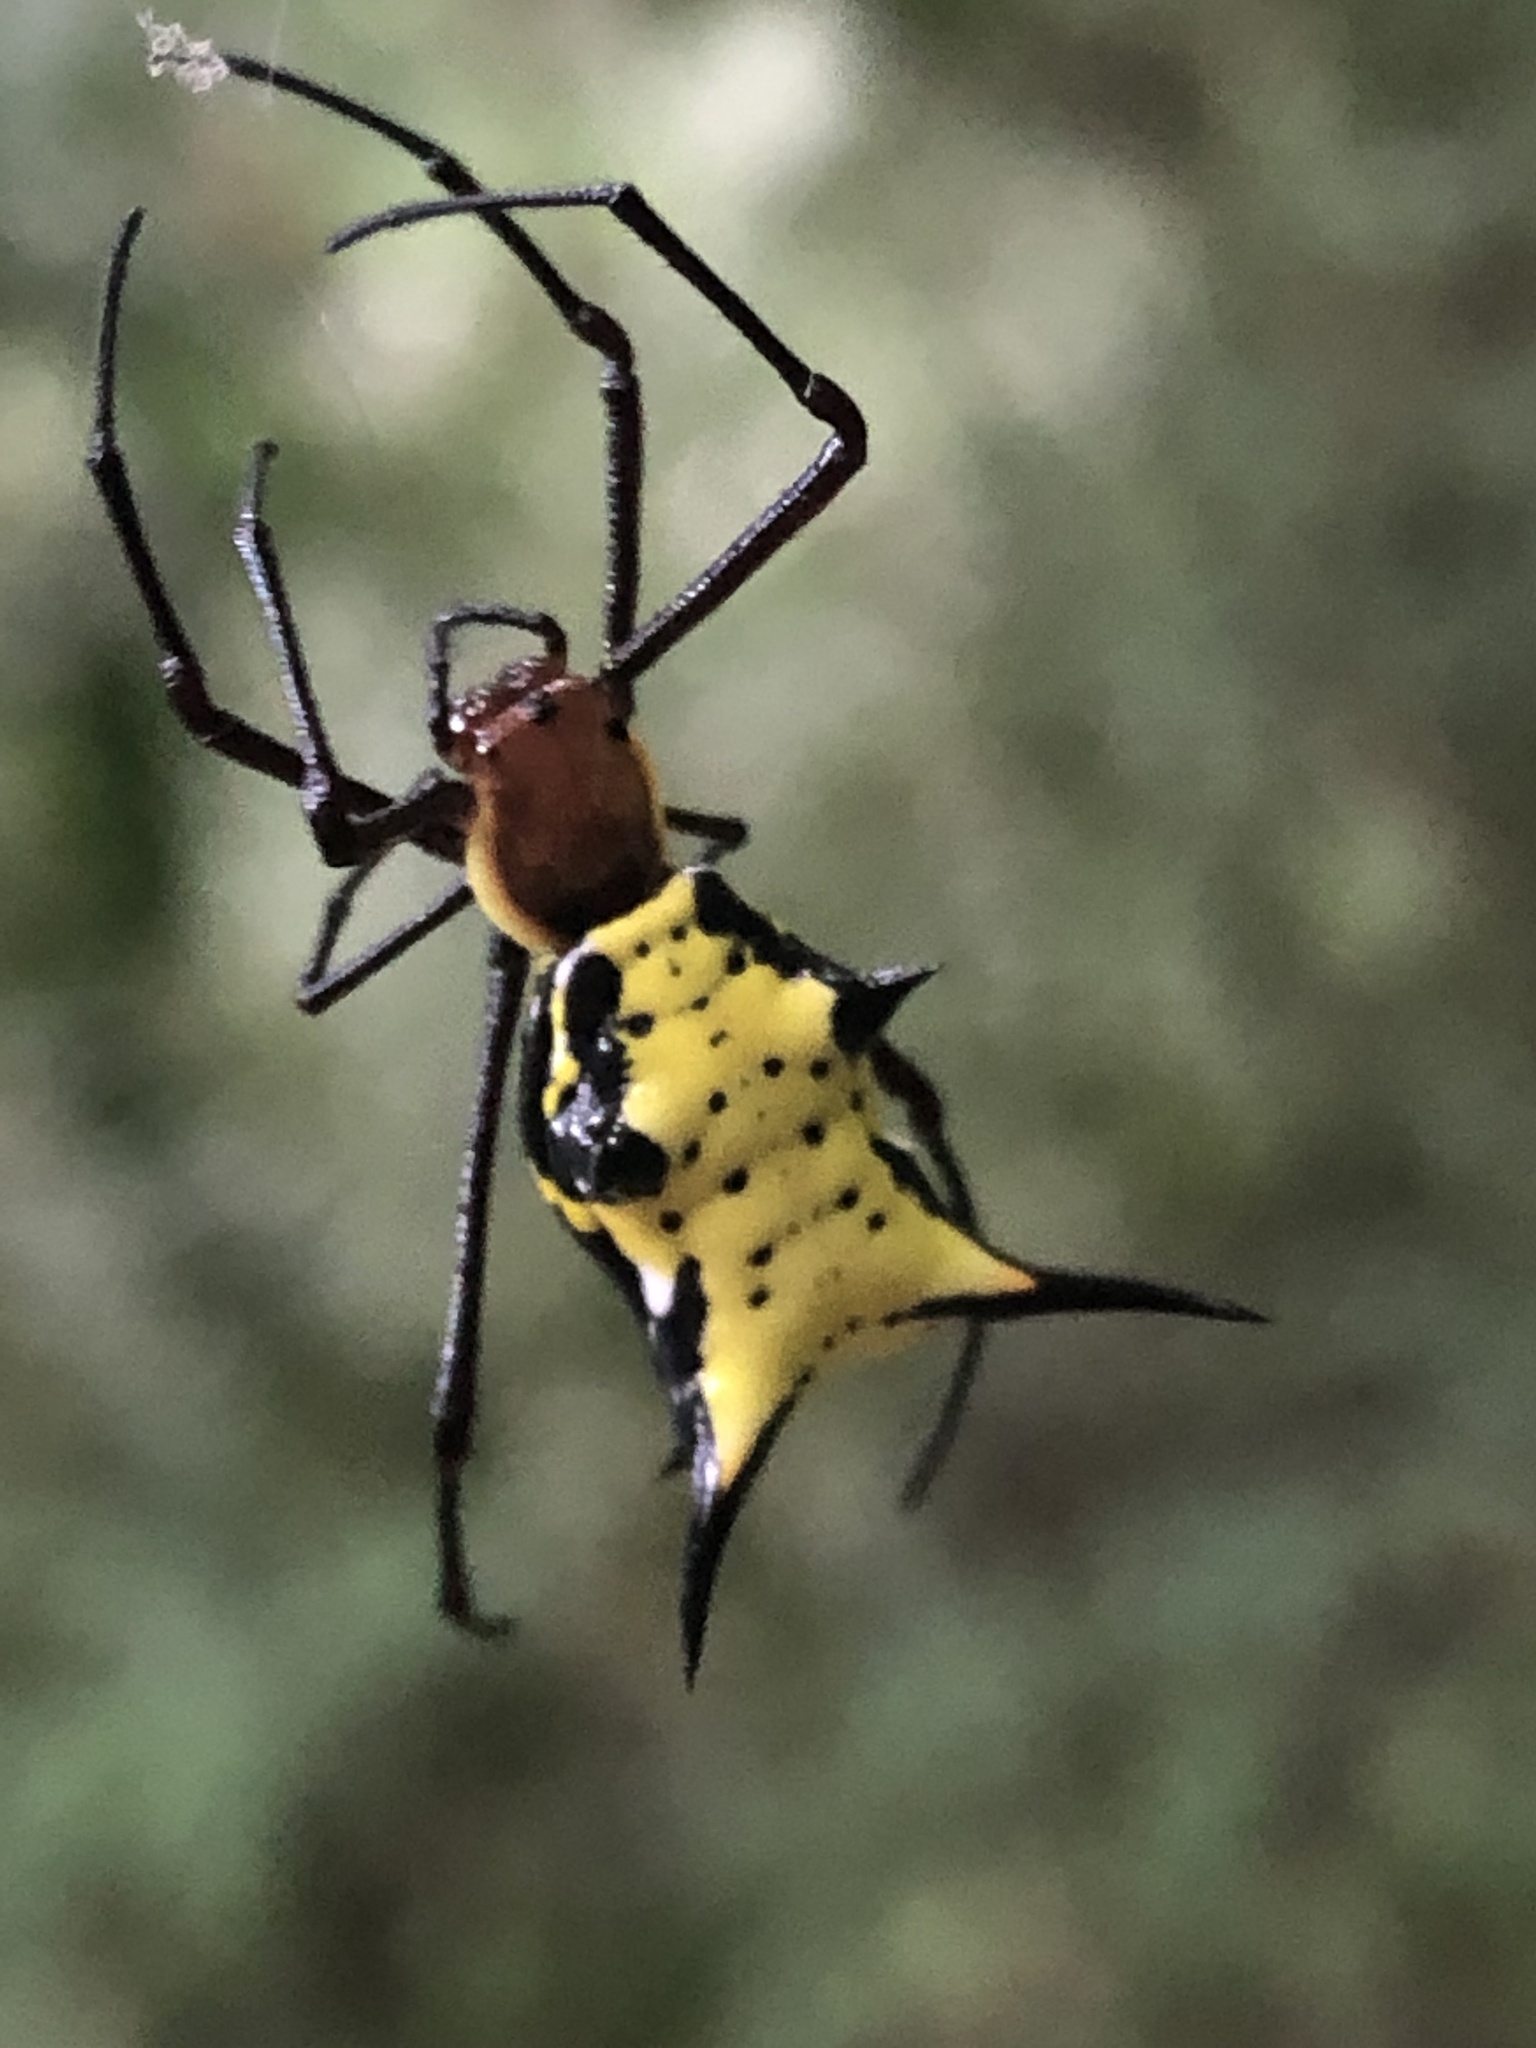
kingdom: Animalia
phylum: Arthropoda
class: Arachnida
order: Araneae
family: Araneidae
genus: Micrathena
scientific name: Micrathena miles
